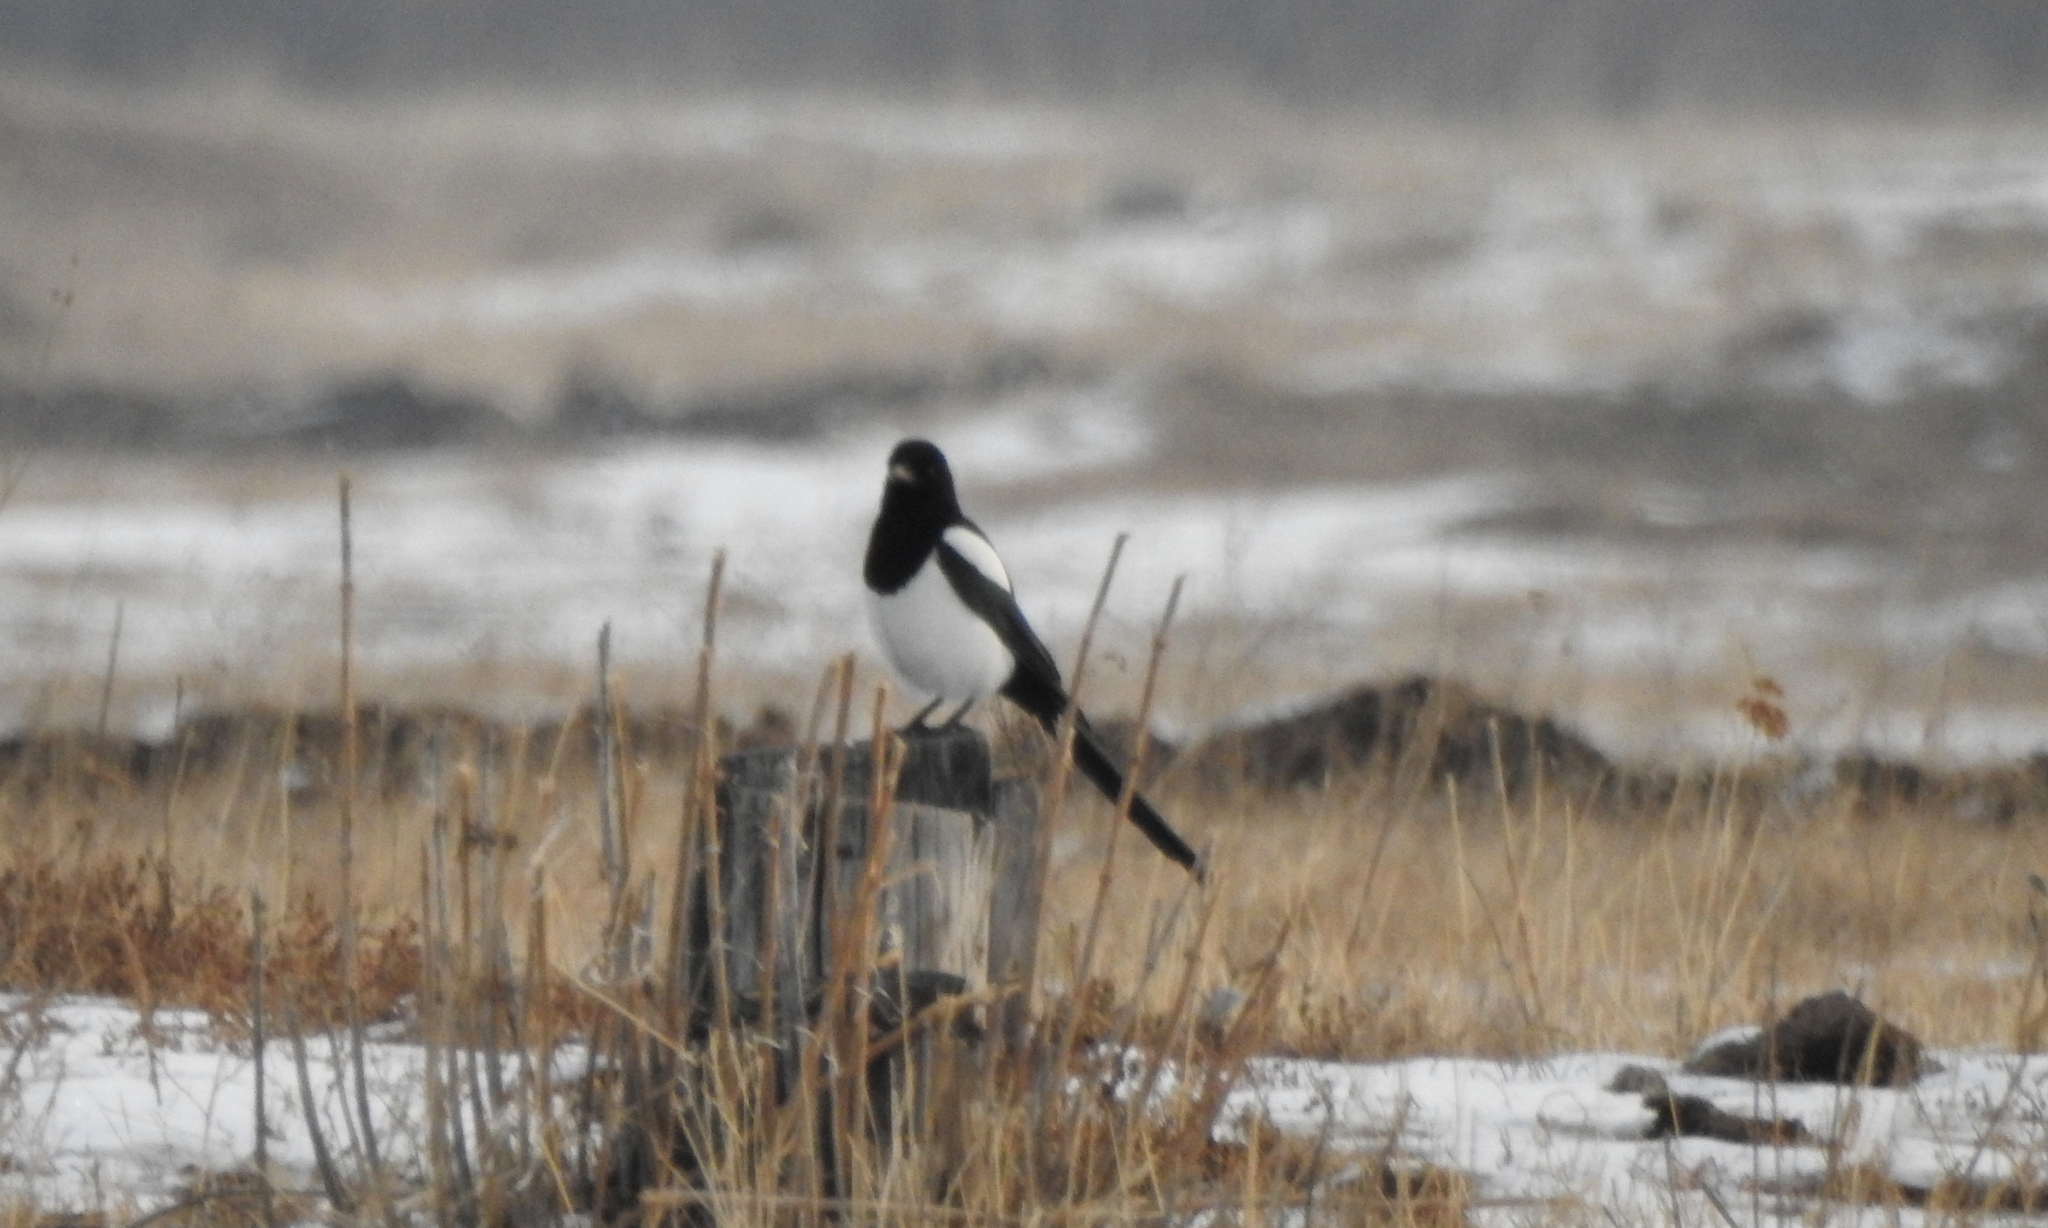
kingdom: Animalia
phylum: Chordata
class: Aves
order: Passeriformes
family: Corvidae
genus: Pica
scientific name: Pica pica
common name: Eurasian magpie
